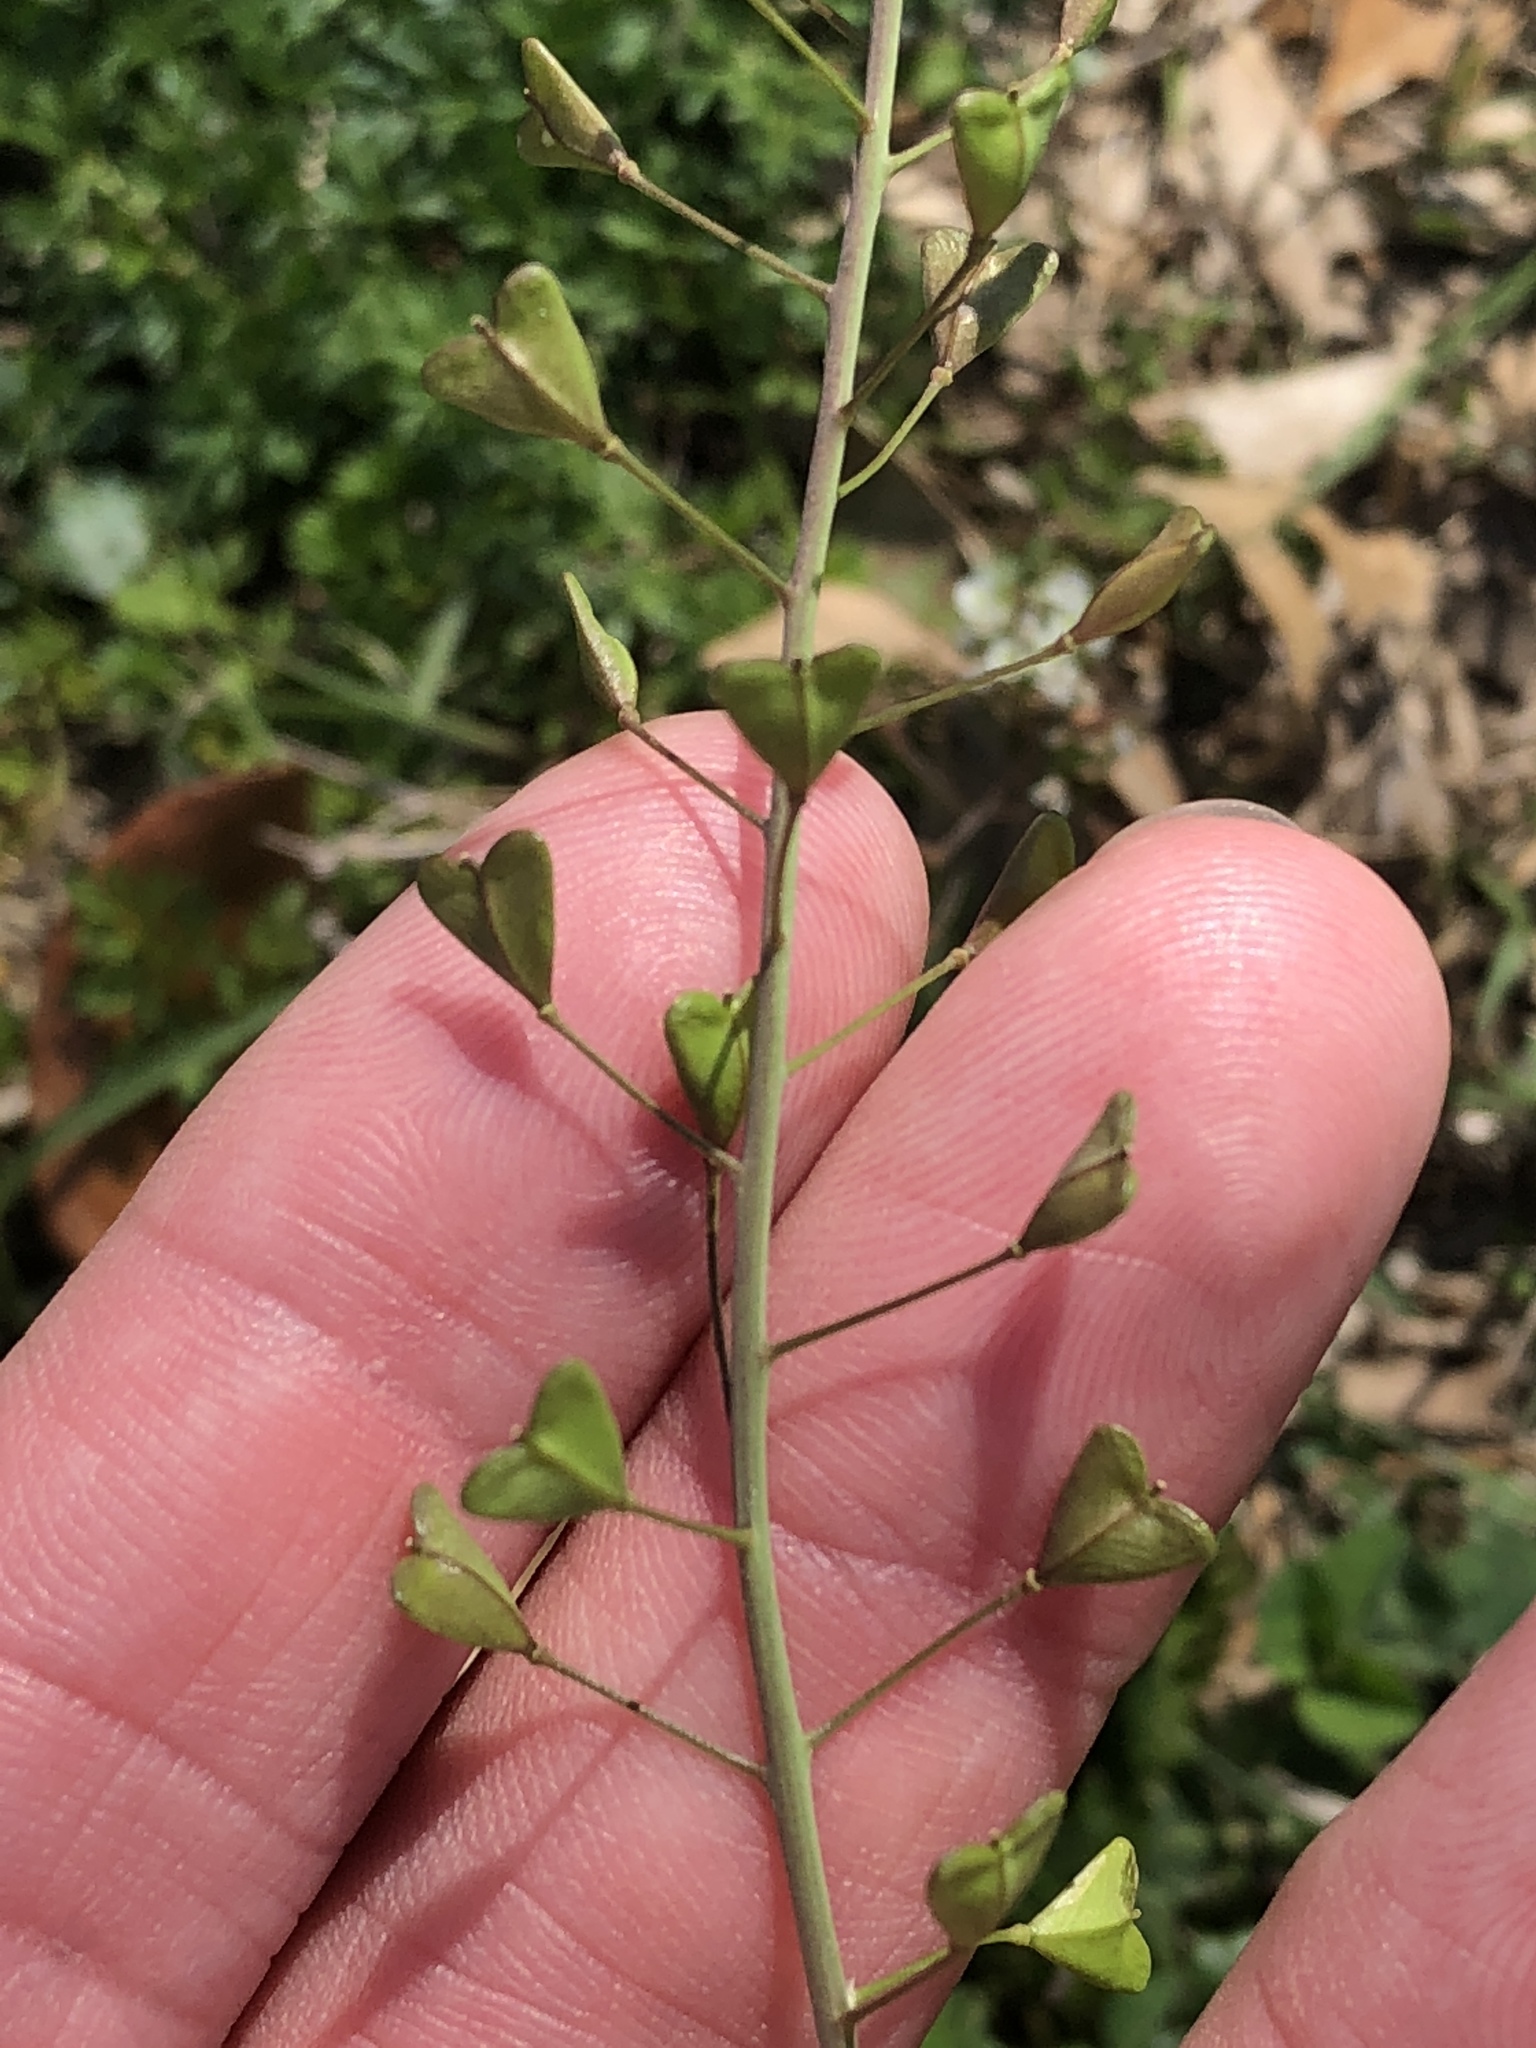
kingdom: Plantae
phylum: Tracheophyta
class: Magnoliopsida
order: Brassicales
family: Brassicaceae
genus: Capsella
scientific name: Capsella bursa-pastoris
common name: Shepherd's purse
